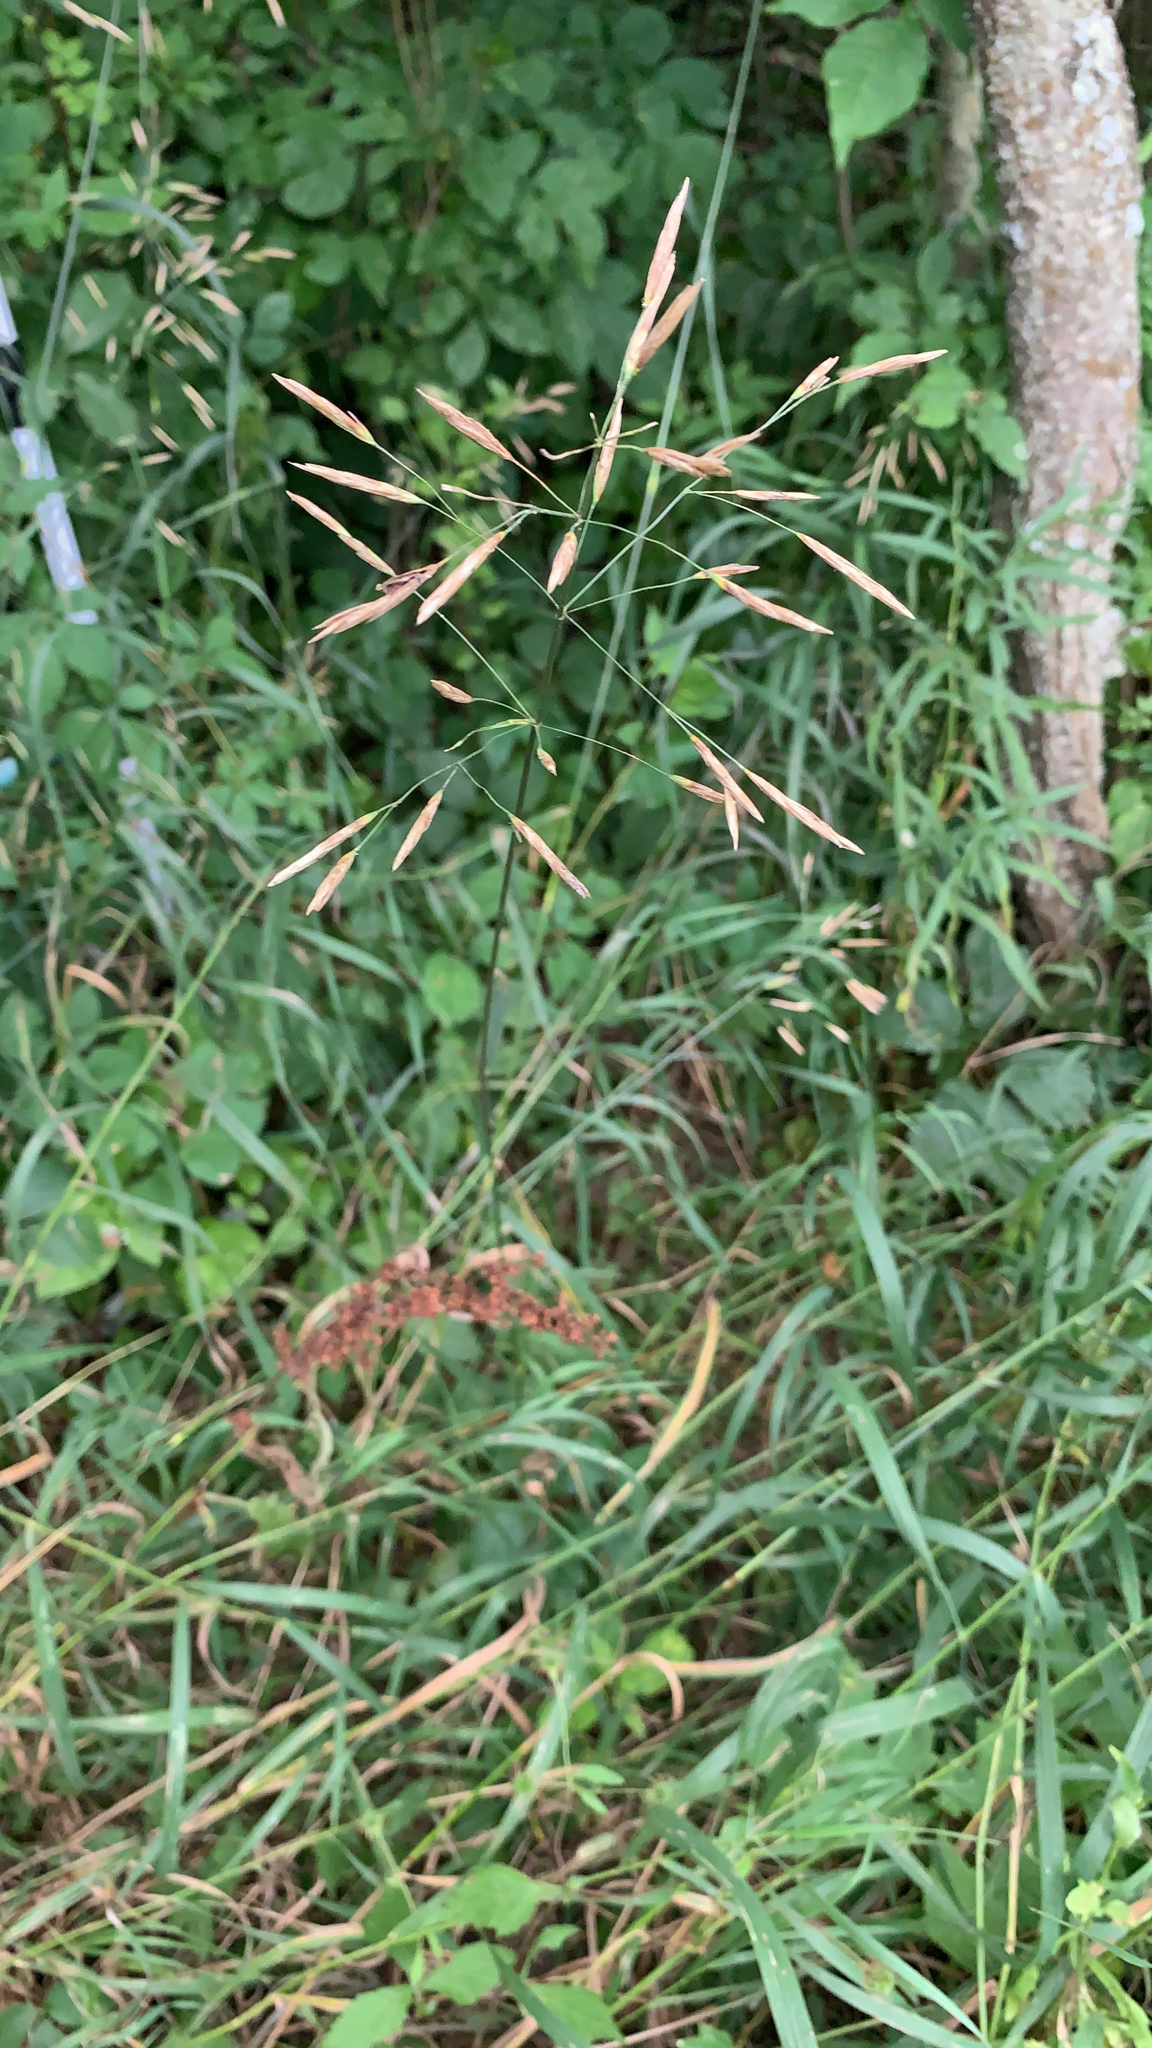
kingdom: Plantae
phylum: Tracheophyta
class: Liliopsida
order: Poales
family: Poaceae
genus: Bromus
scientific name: Bromus inermis
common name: Smooth brome
